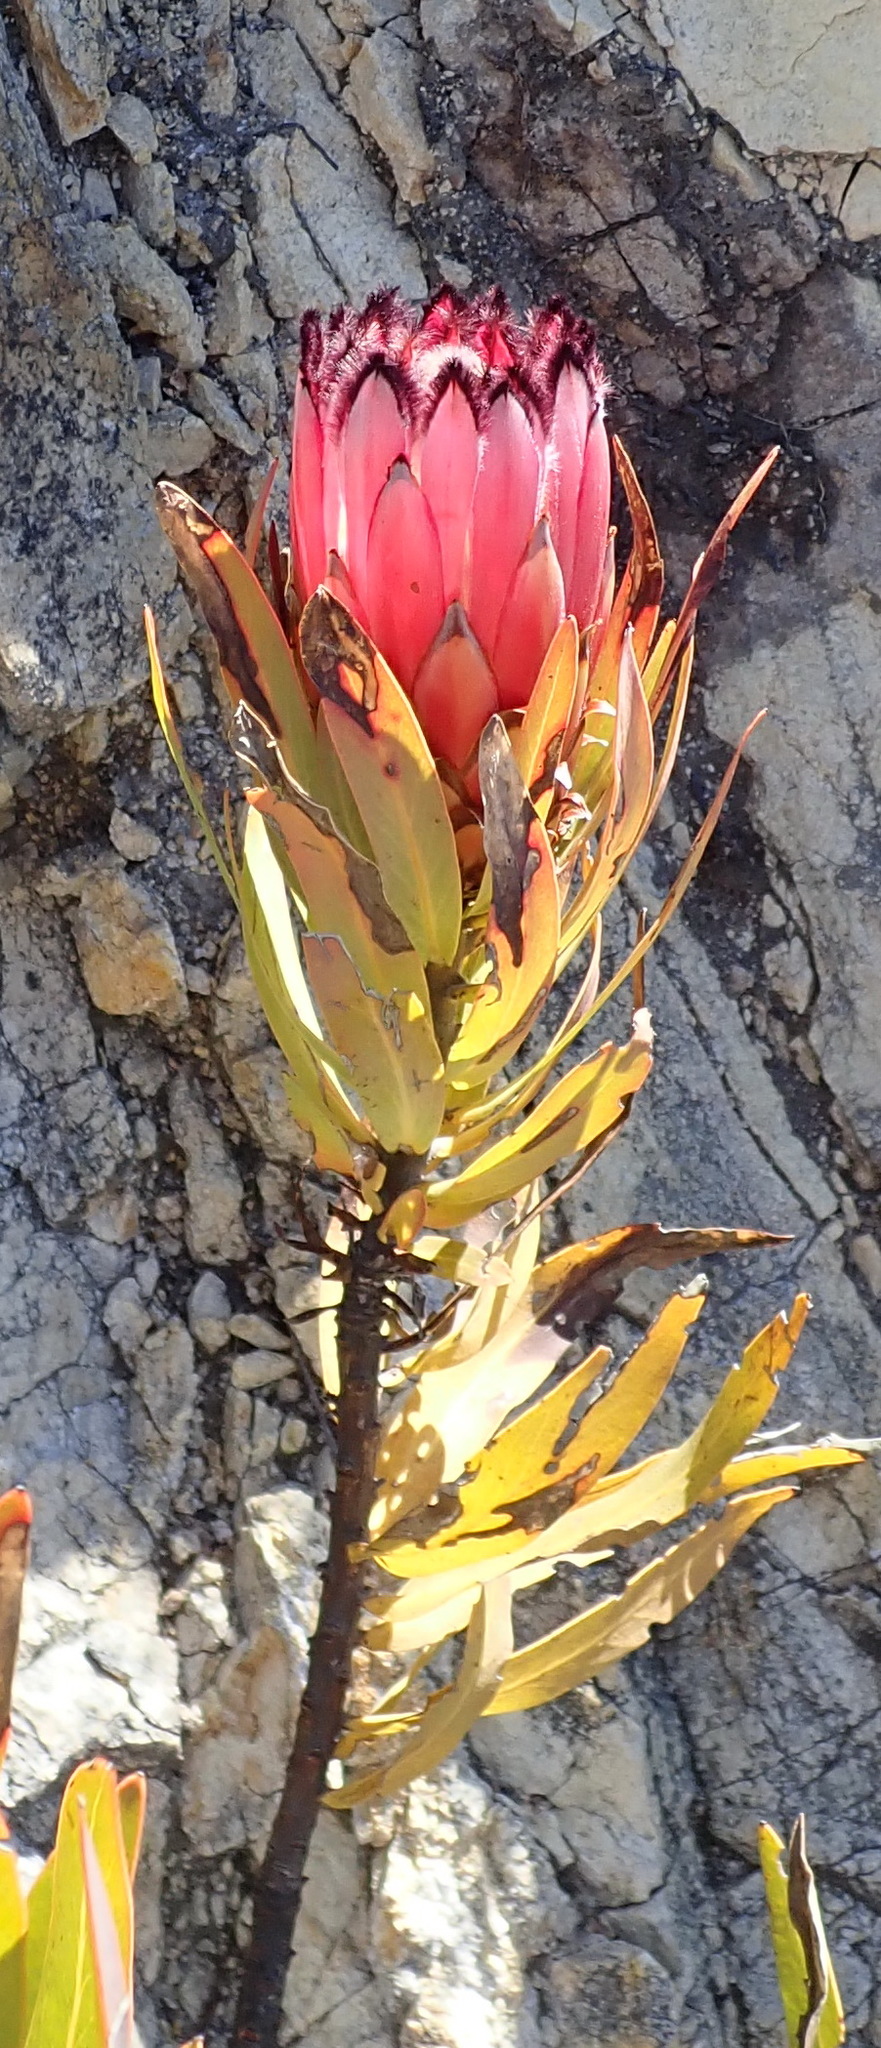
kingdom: Plantae
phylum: Tracheophyta
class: Magnoliopsida
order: Proteales
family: Proteaceae
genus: Protea
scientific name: Protea neriifolia
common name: Blue sugarbush
